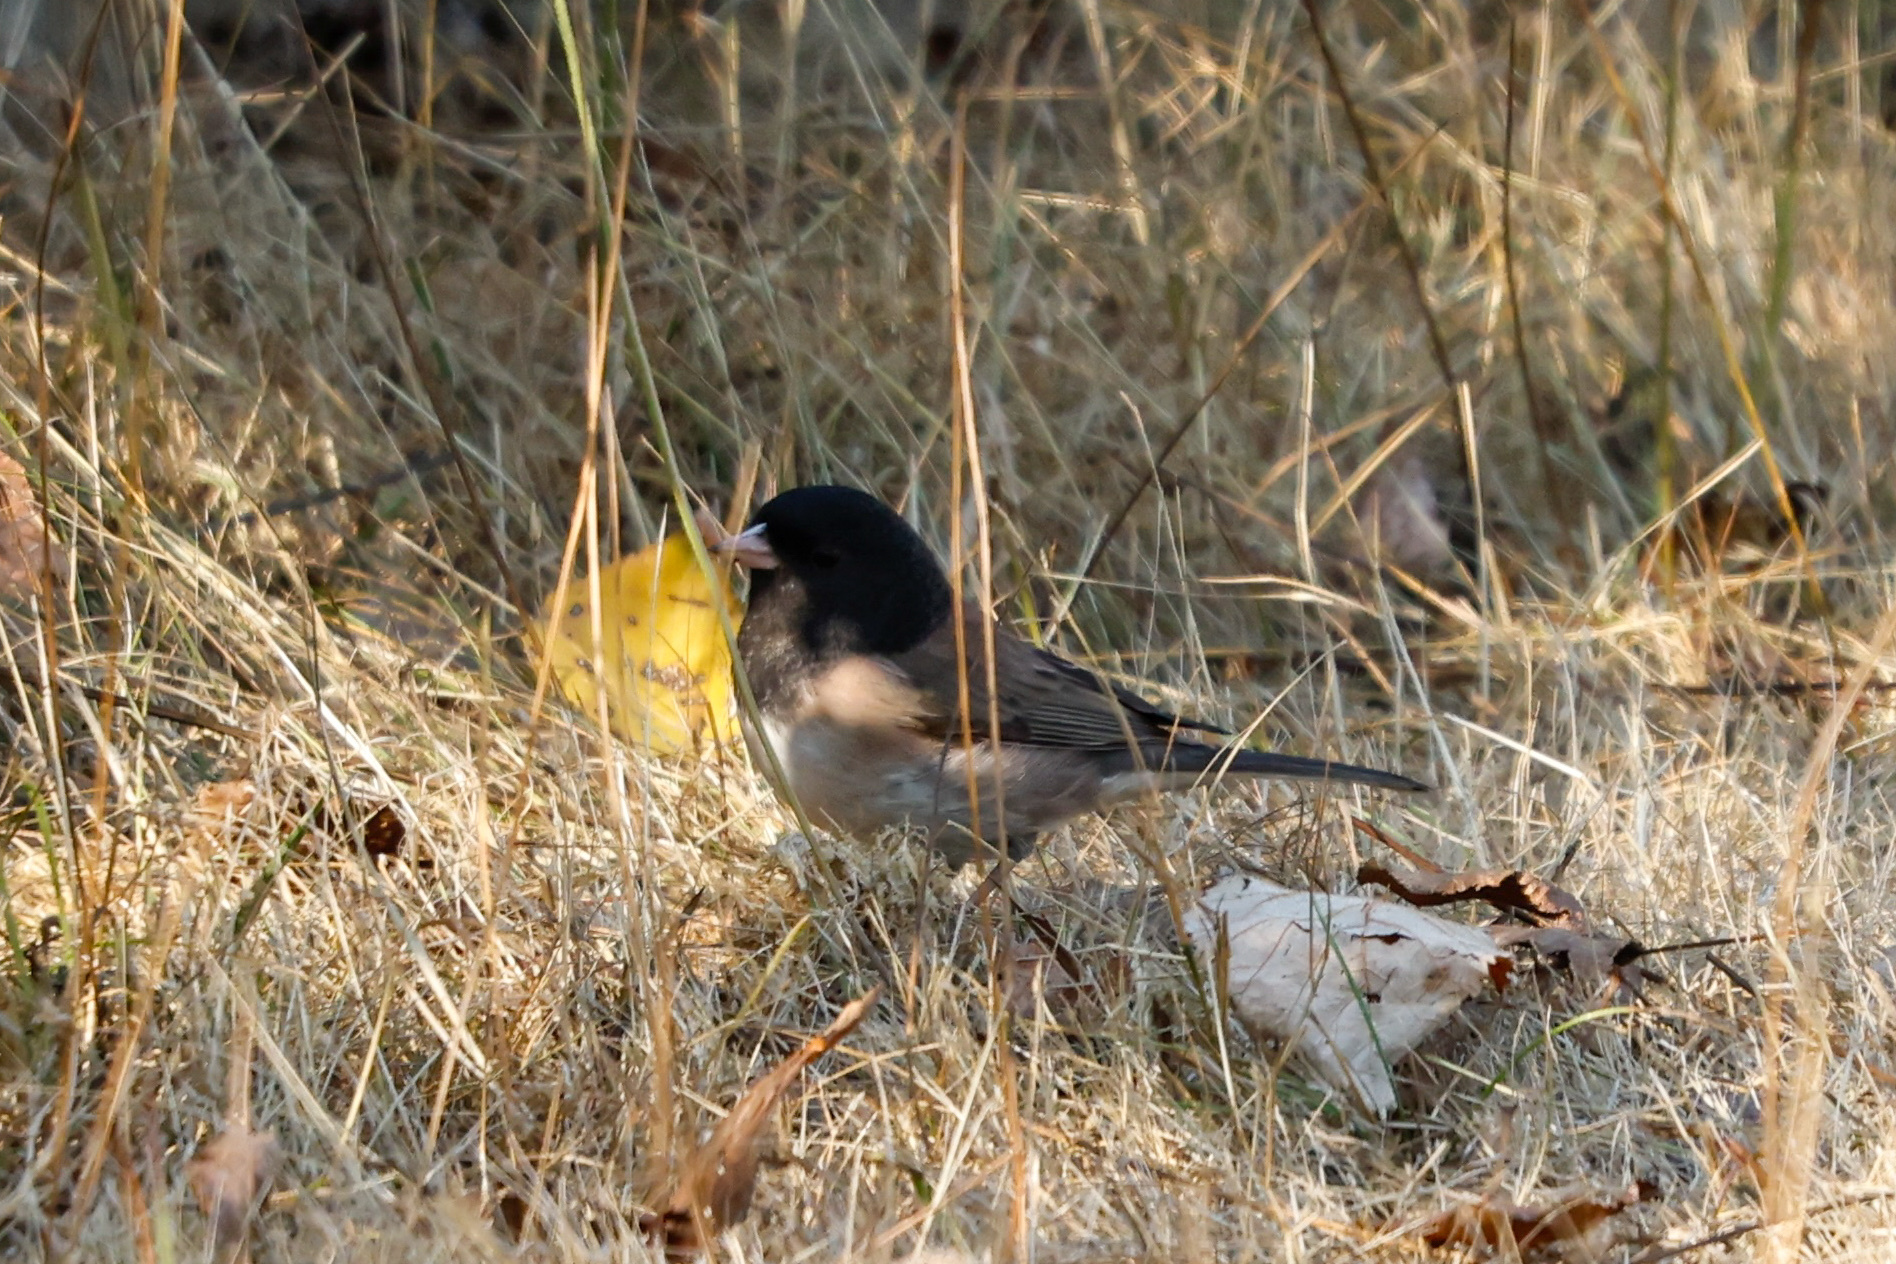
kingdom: Animalia
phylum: Chordata
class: Aves
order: Passeriformes
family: Passerellidae
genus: Junco
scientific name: Junco hyemalis
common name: Dark-eyed junco
